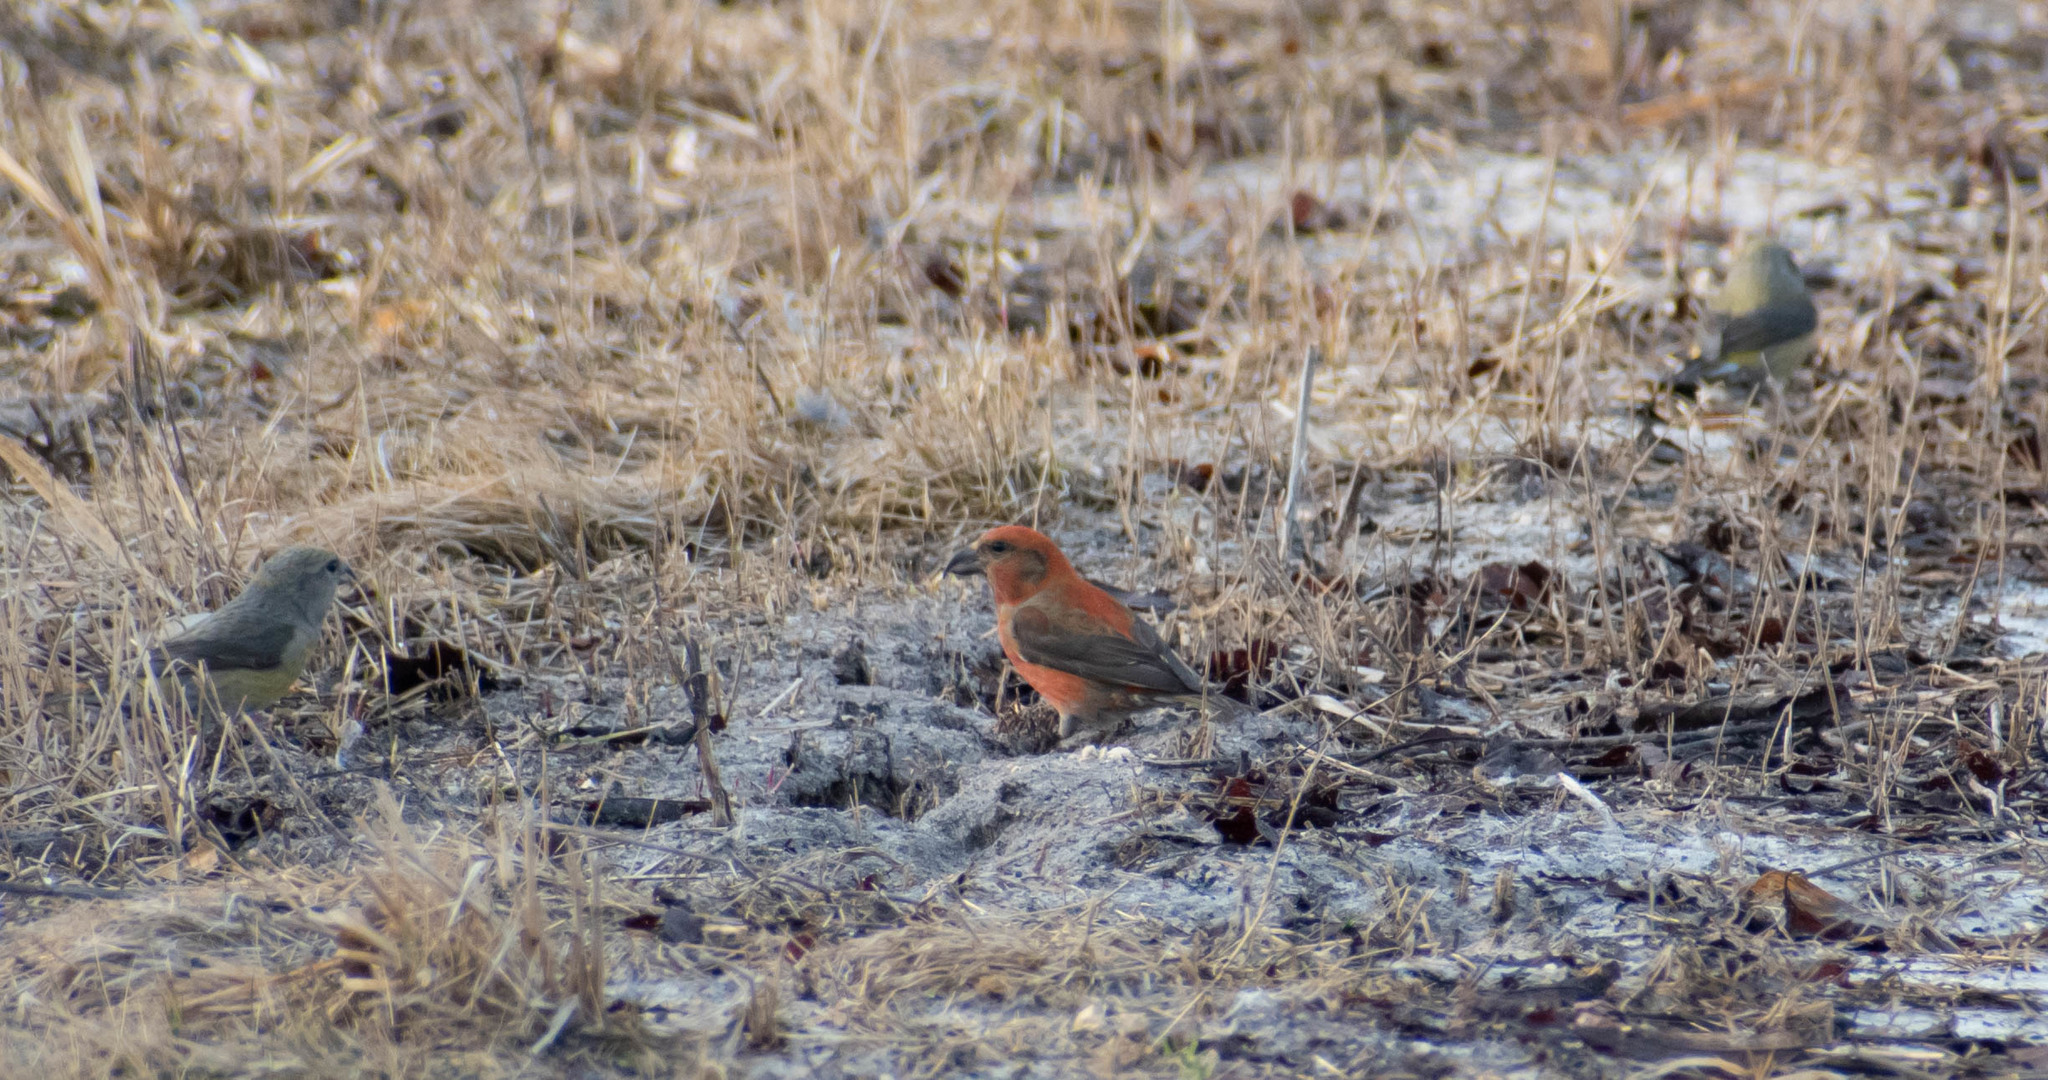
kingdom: Animalia
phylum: Chordata
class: Aves
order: Passeriformes
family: Fringillidae
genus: Loxia
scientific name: Loxia curvirostra
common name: Red crossbill
